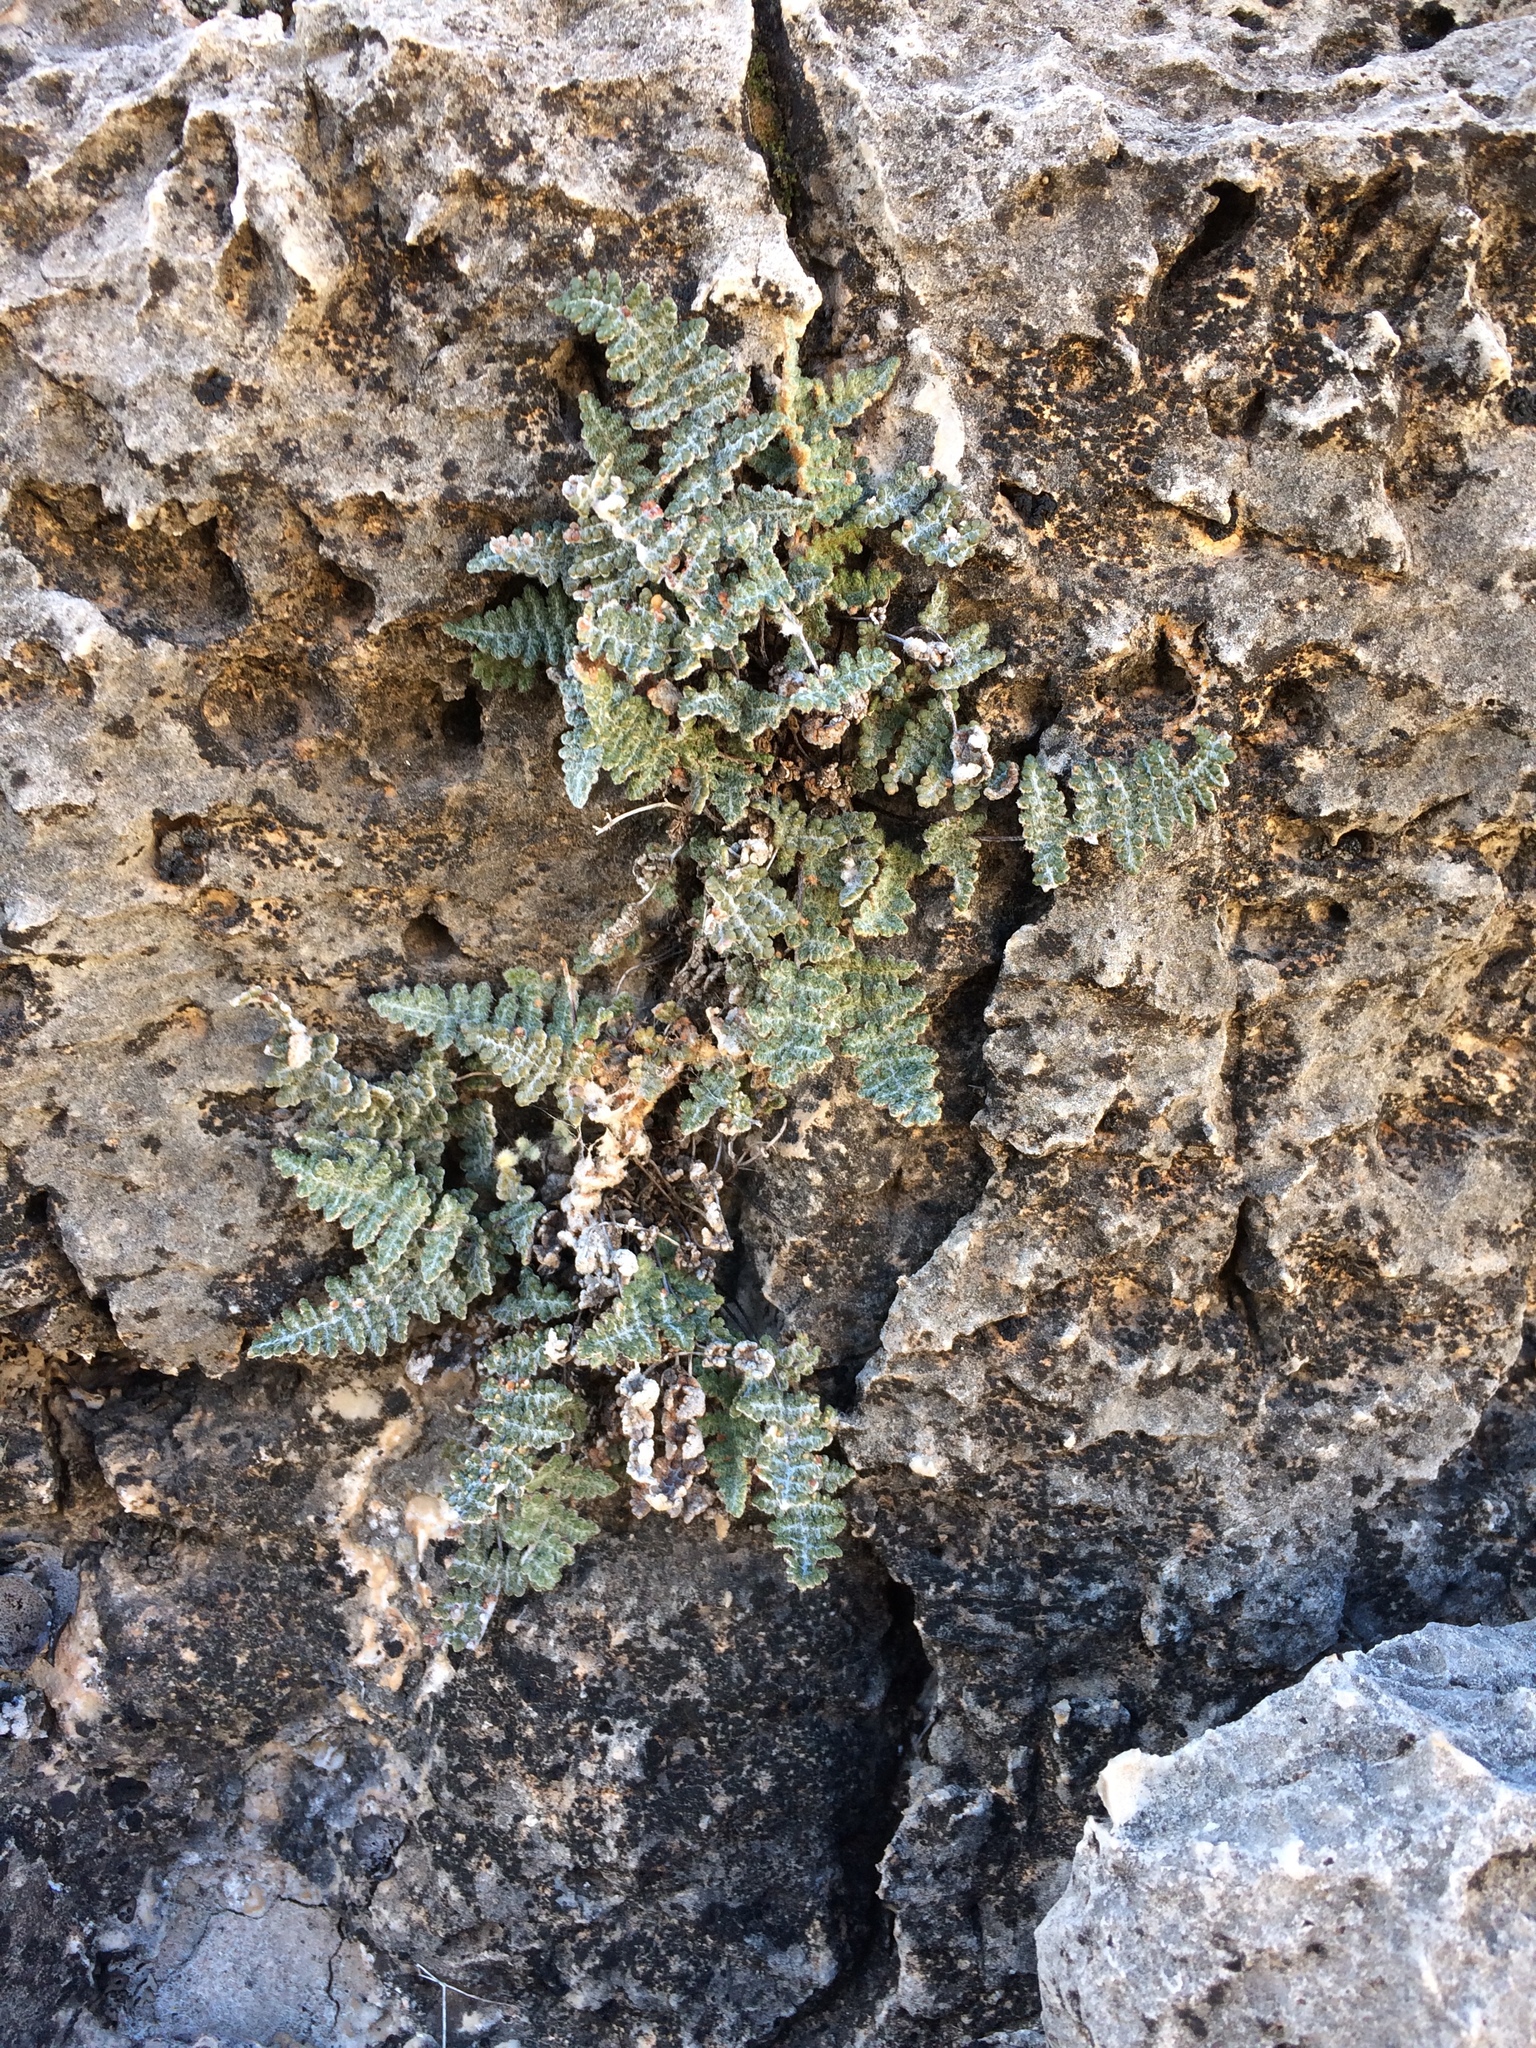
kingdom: Plantae
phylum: Tracheophyta
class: Polypodiopsida
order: Polypodiales
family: Pteridaceae
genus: Myriopteris
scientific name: Myriopteris gracilis
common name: Fee's lip fern
